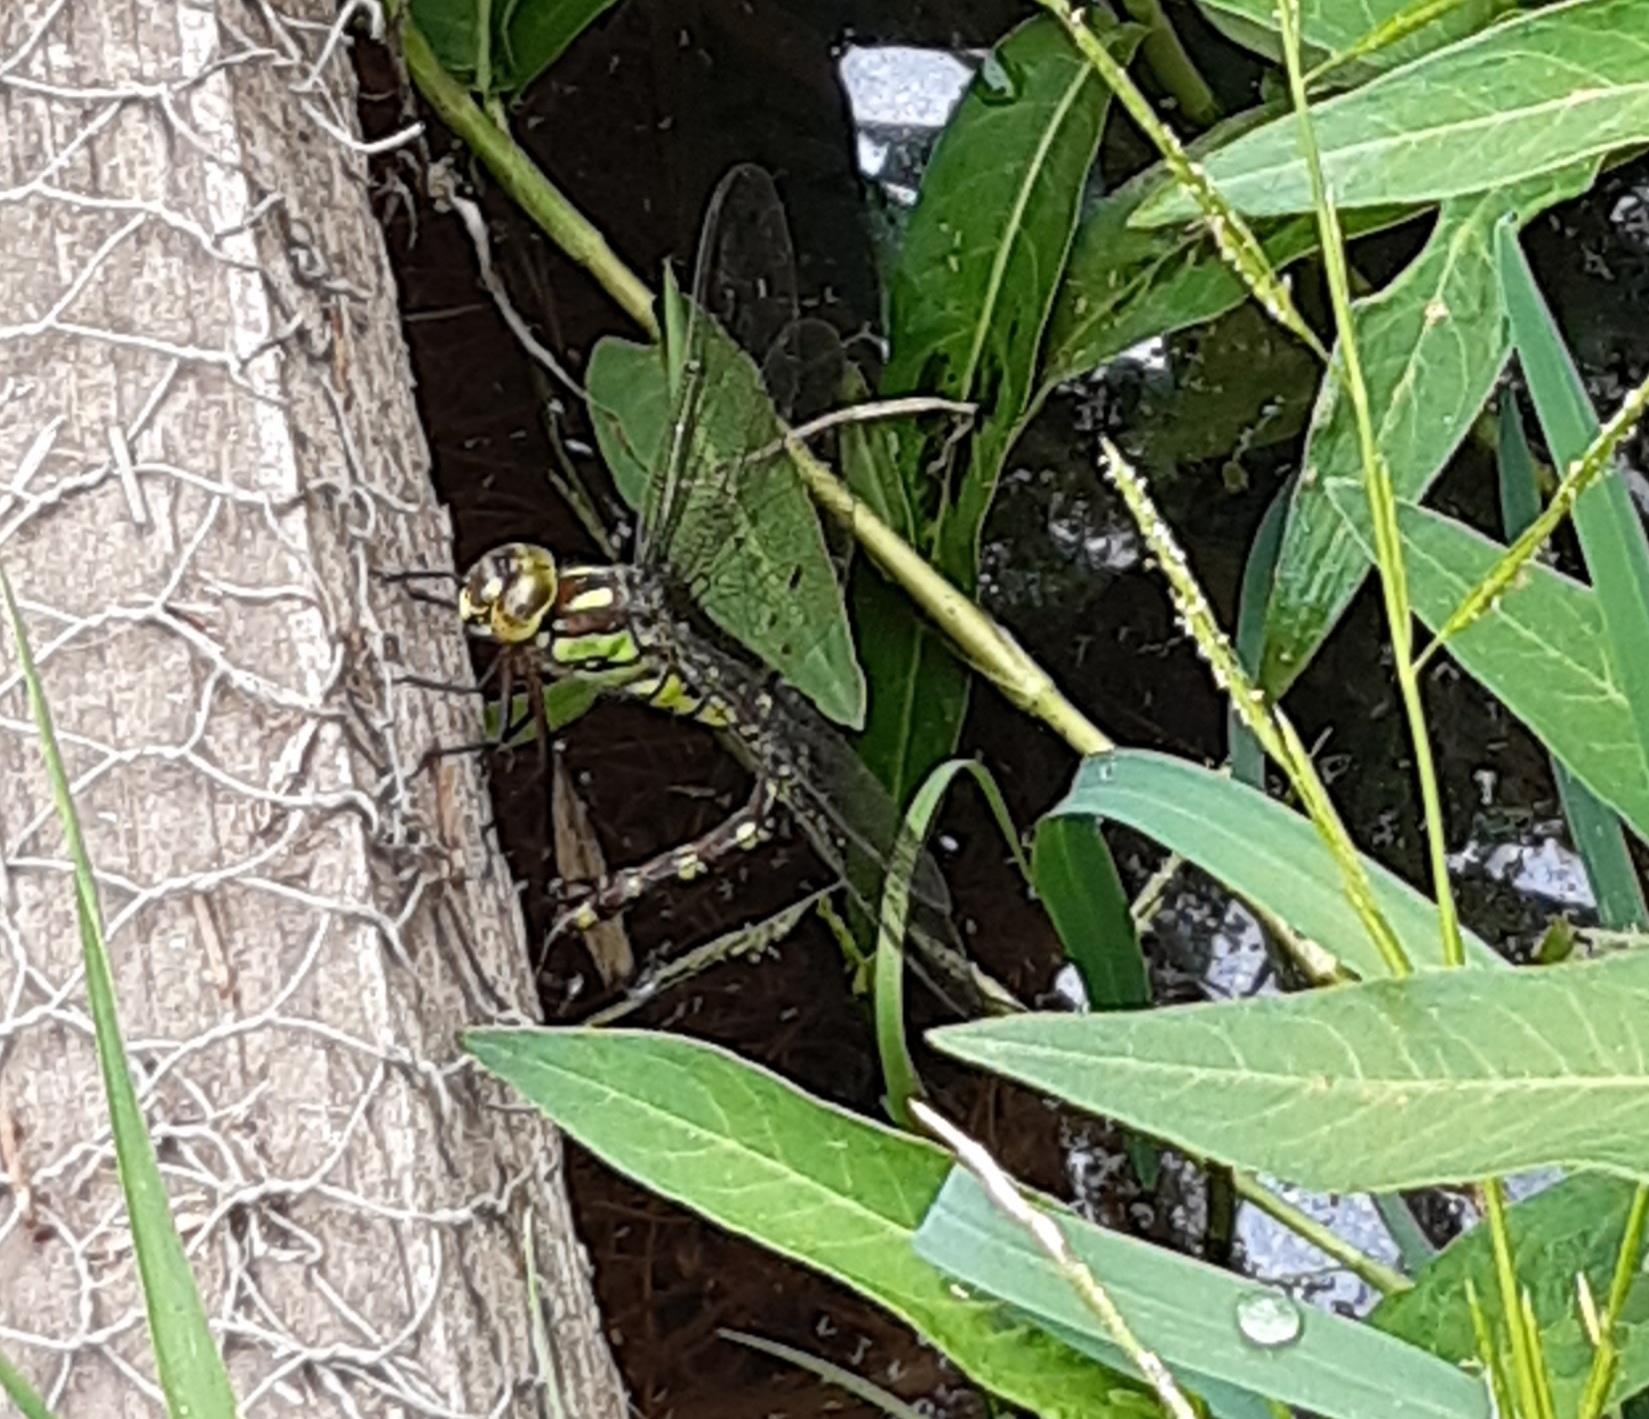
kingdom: Animalia
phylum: Arthropoda
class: Insecta
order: Odonata
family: Aeshnidae
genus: Aeshna
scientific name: Aeshna cyanea
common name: Southern hawker
